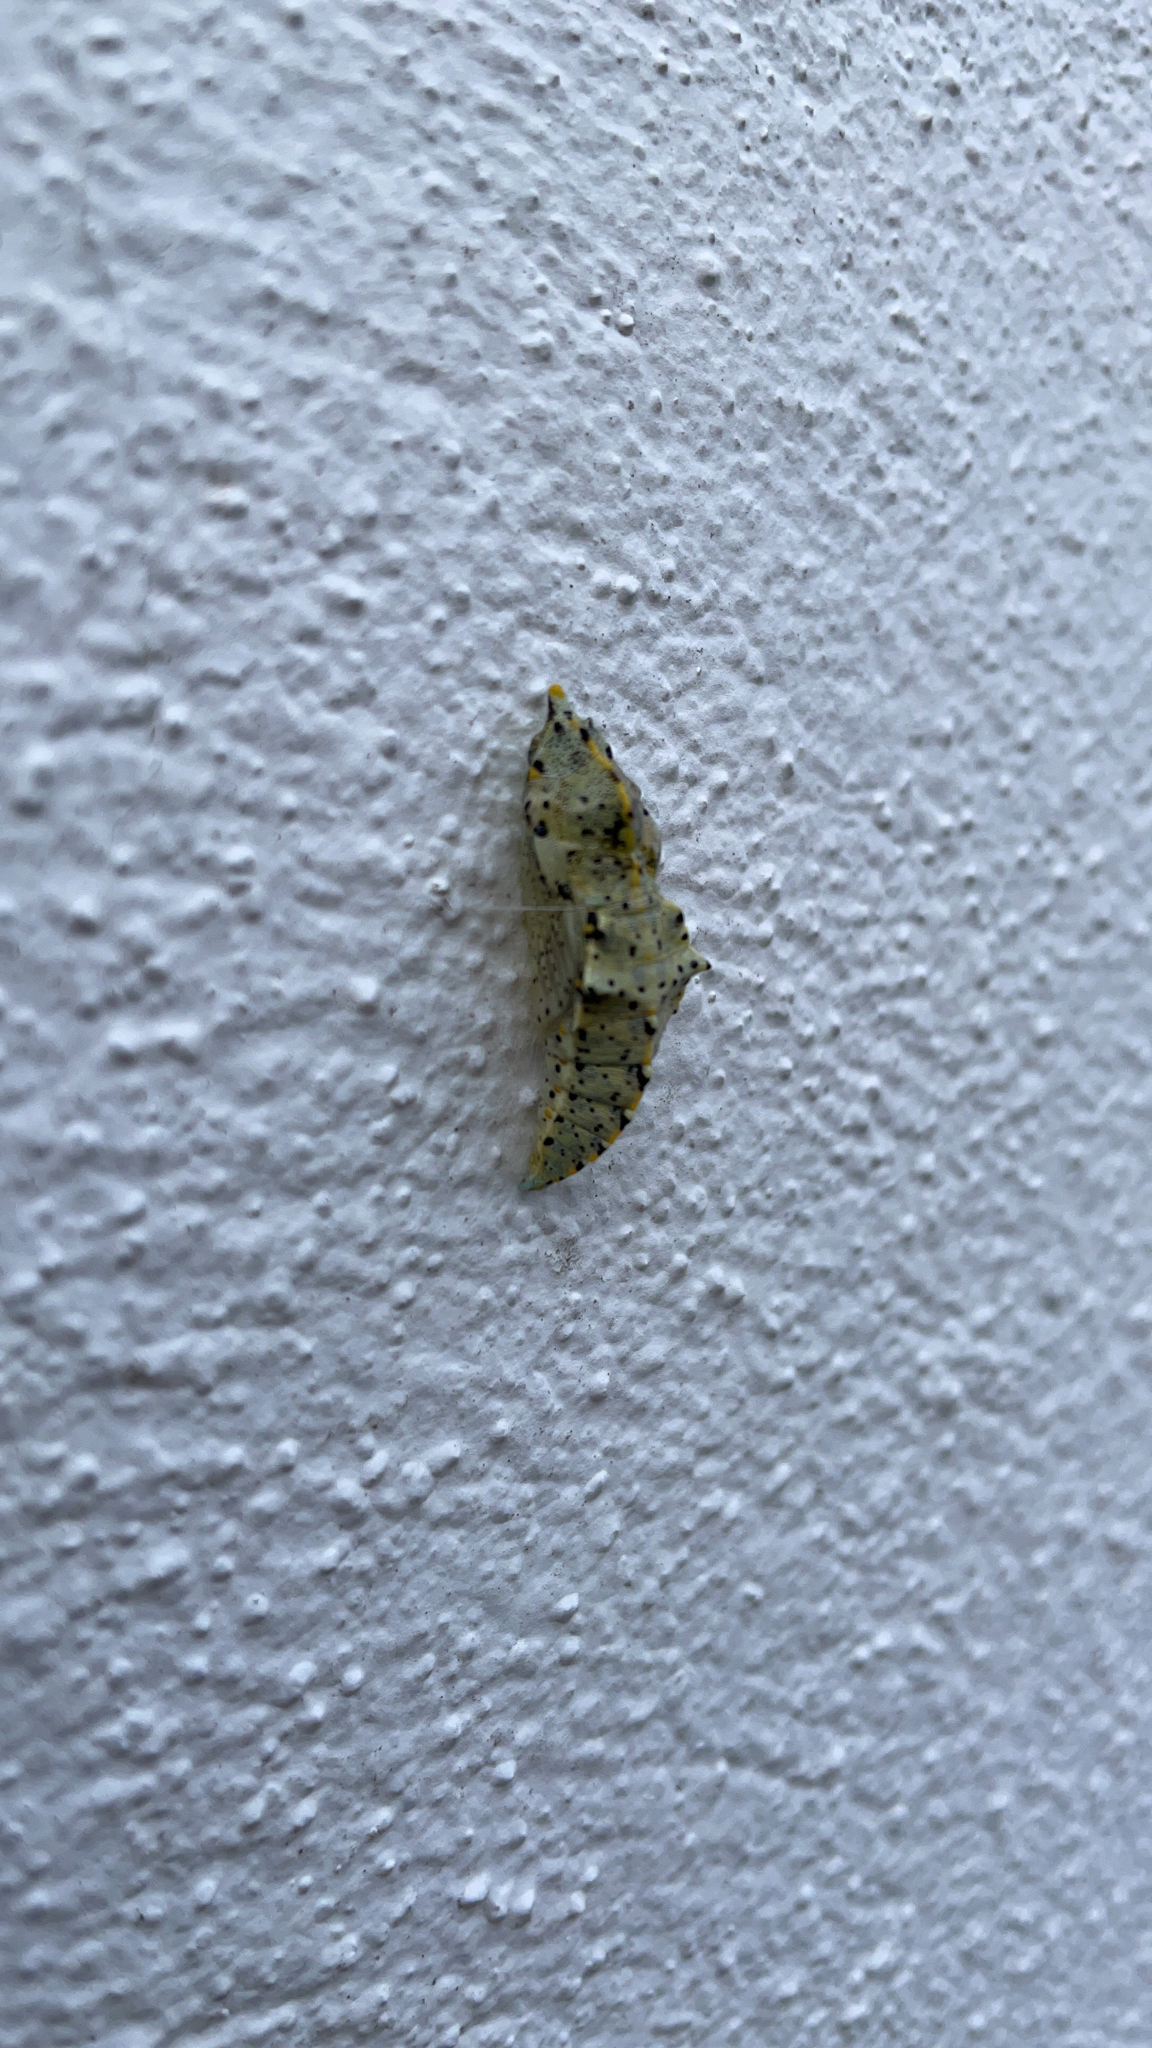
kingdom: Animalia
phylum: Arthropoda
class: Insecta
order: Lepidoptera
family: Pieridae
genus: Pieris
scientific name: Pieris brassicae
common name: Large white
